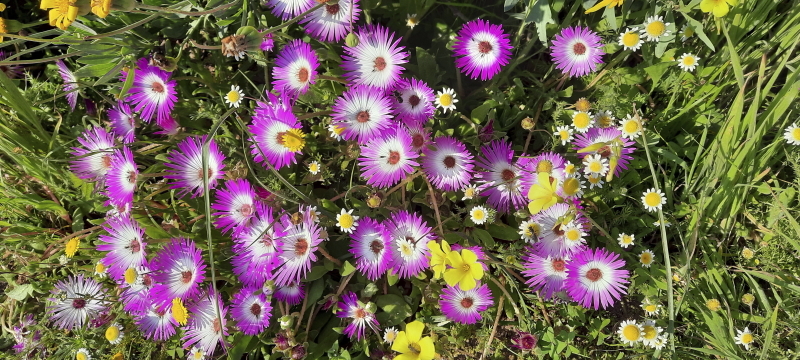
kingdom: Plantae
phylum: Tracheophyta
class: Magnoliopsida
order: Caryophyllales
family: Aizoaceae
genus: Cleretum
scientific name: Cleretum bellidiforme
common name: Livingstone daisy
